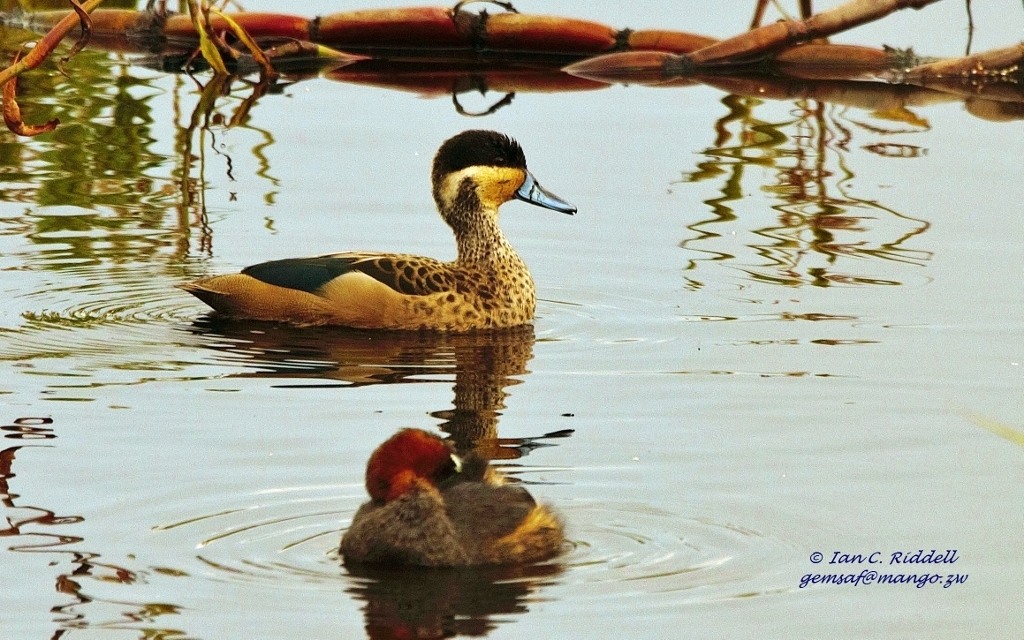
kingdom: Animalia
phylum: Chordata
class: Aves
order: Anseriformes
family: Anatidae
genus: Spatula
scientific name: Spatula hottentota
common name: Blue-billed teal
